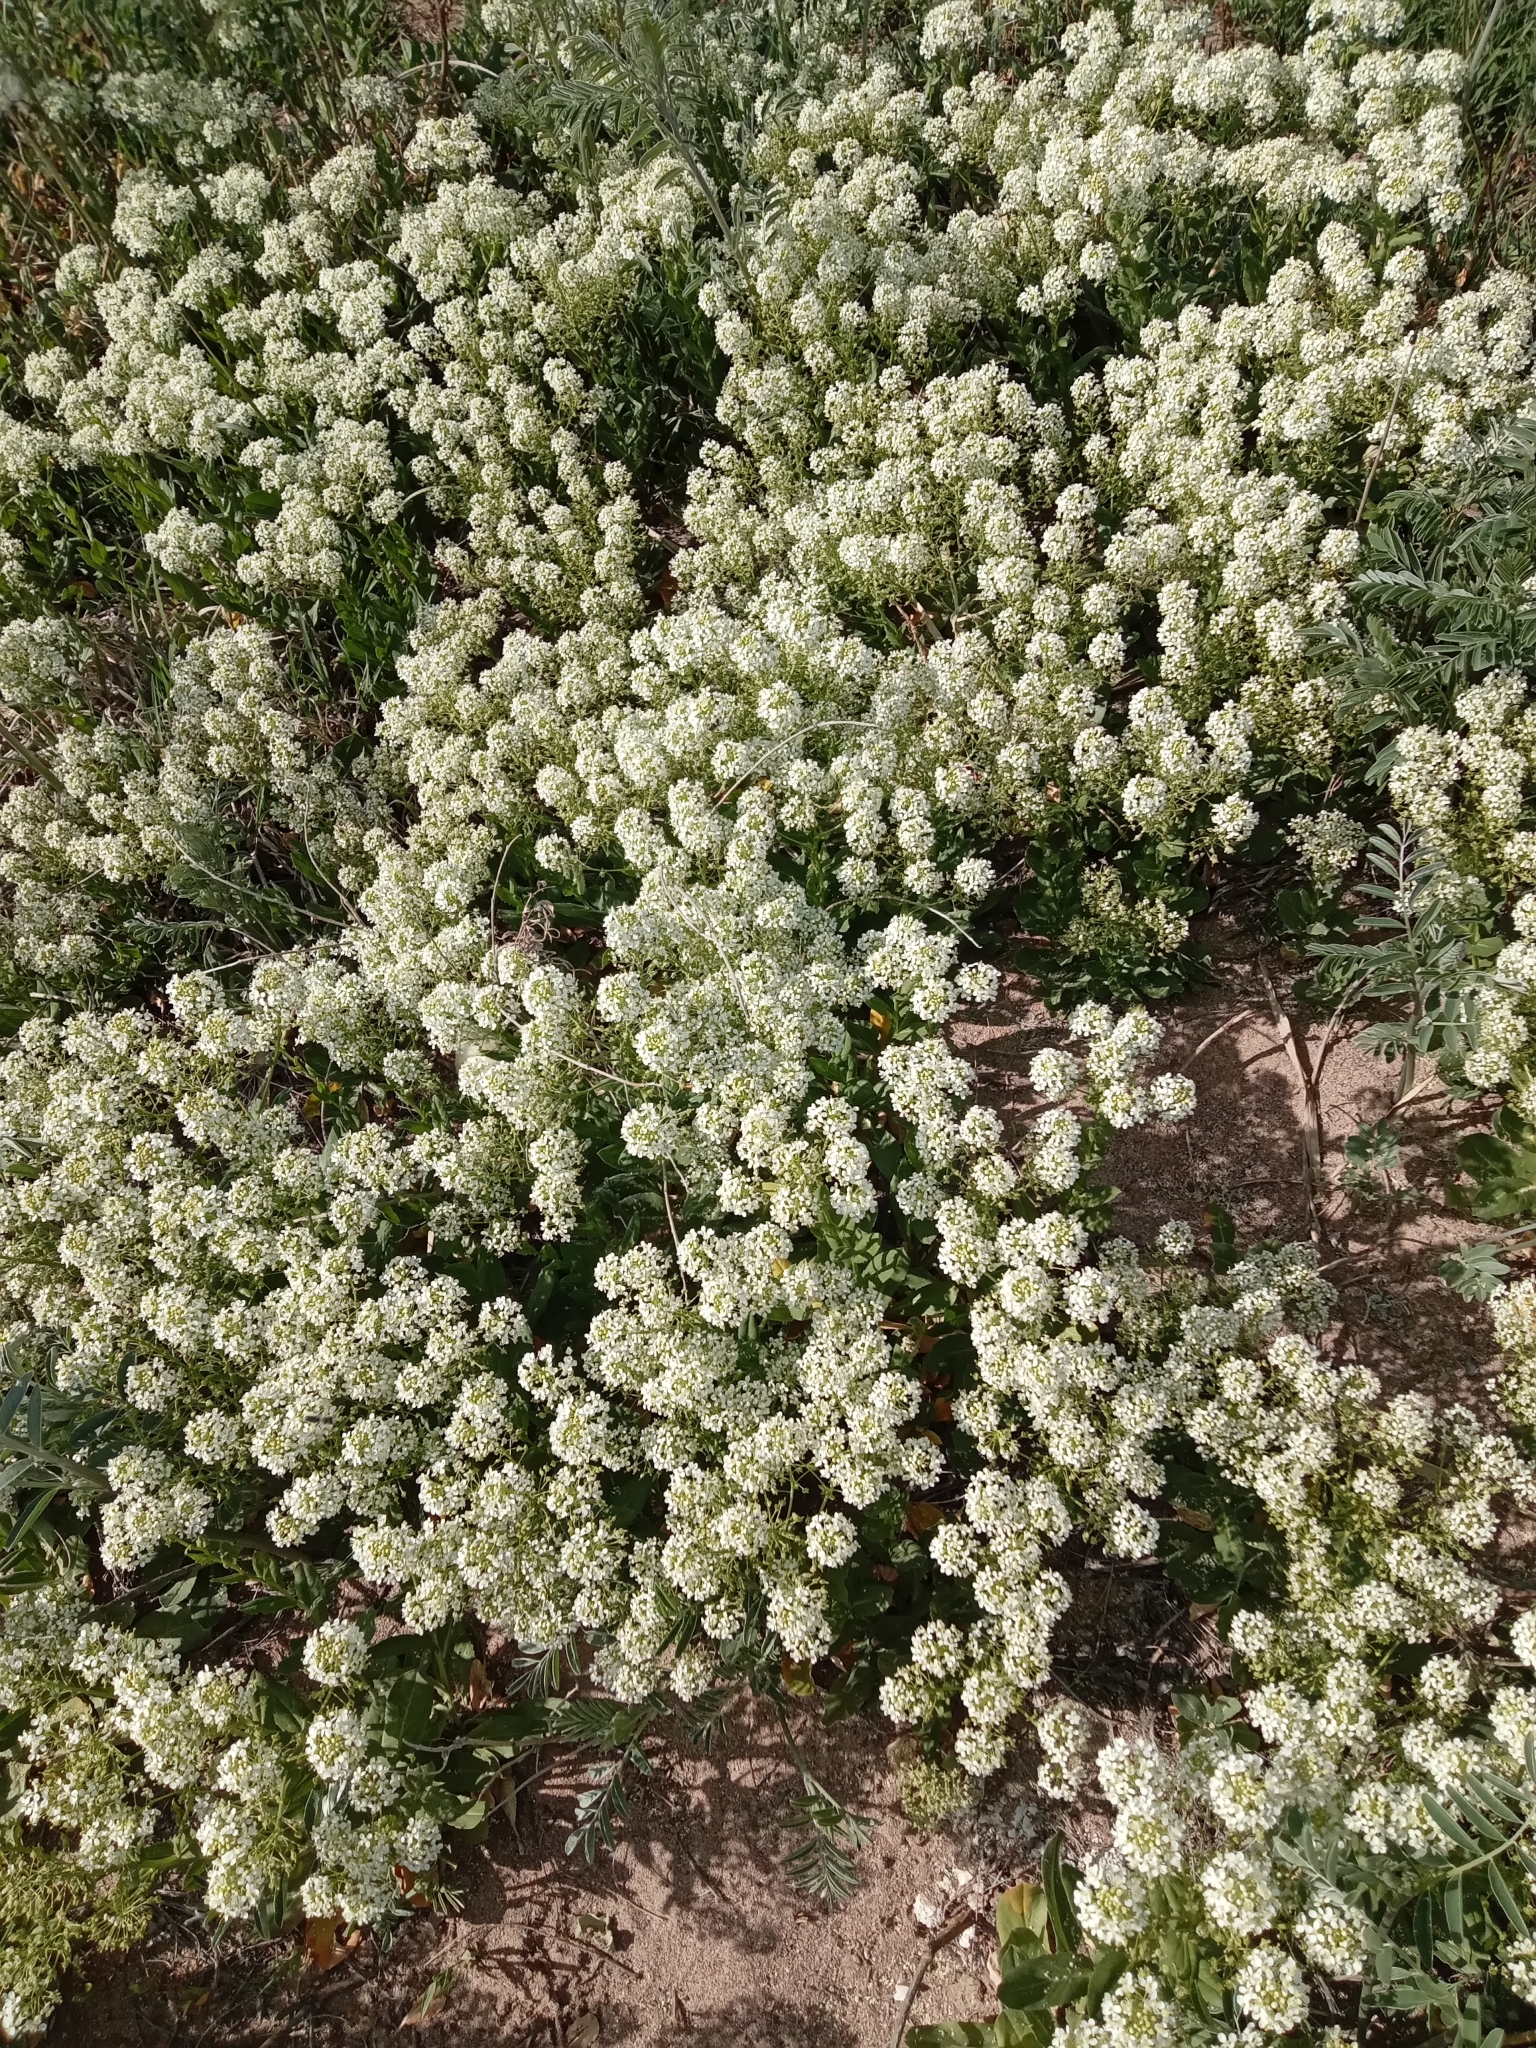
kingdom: Plantae
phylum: Tracheophyta
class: Magnoliopsida
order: Brassicales
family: Brassicaceae
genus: Lepidium
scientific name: Lepidium draba
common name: Hoary cress
